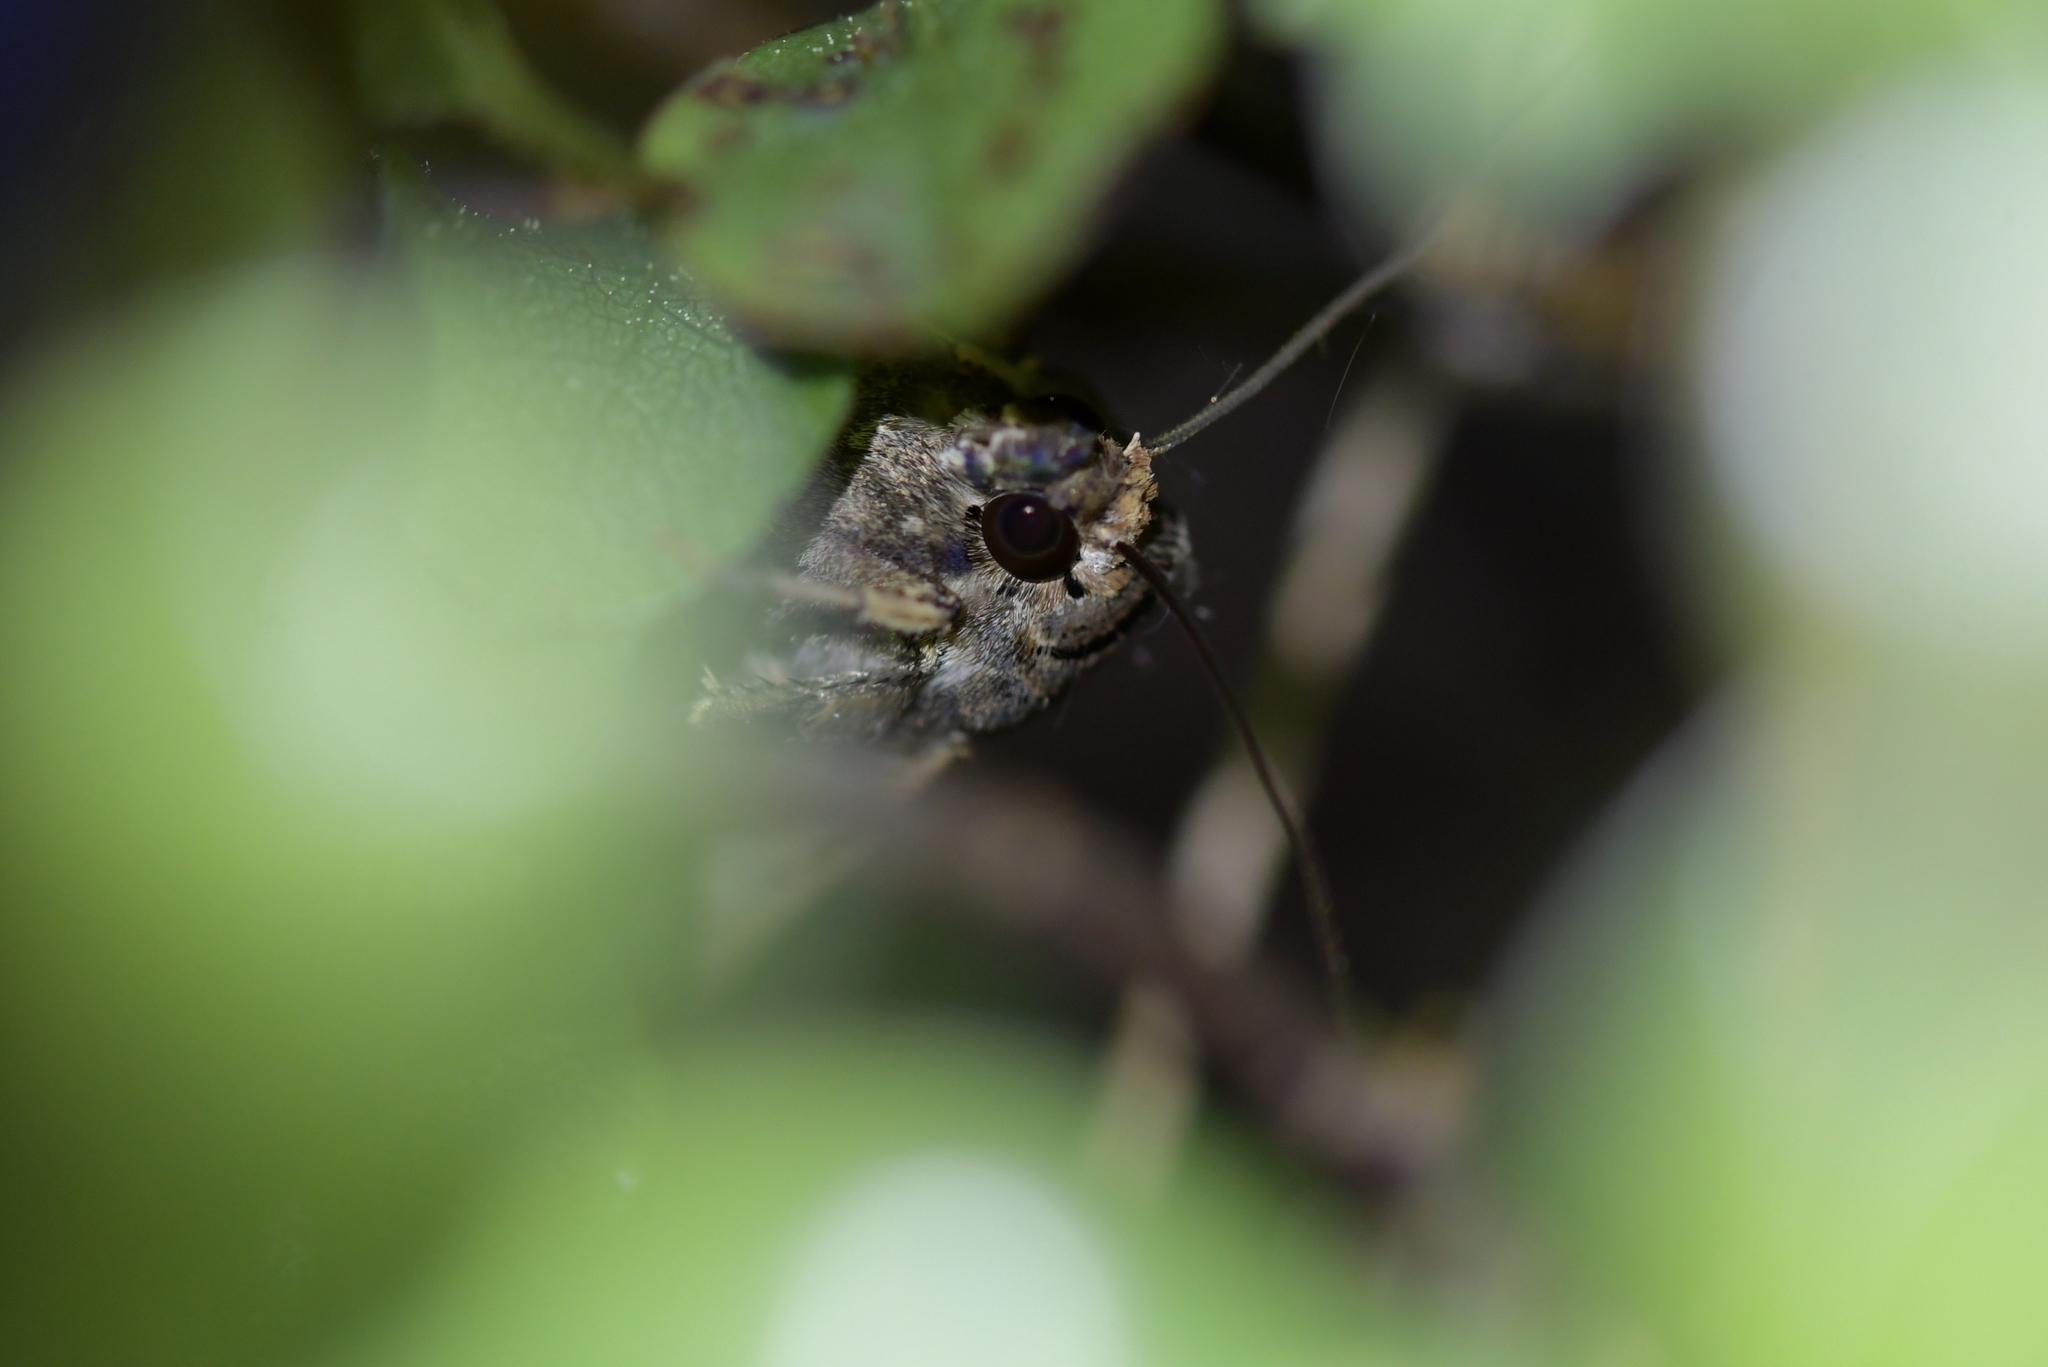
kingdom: Animalia
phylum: Arthropoda
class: Insecta
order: Lepidoptera
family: Noctuidae
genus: Agrotis
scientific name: Agrotis ipsilon
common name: Dark sword-grass
